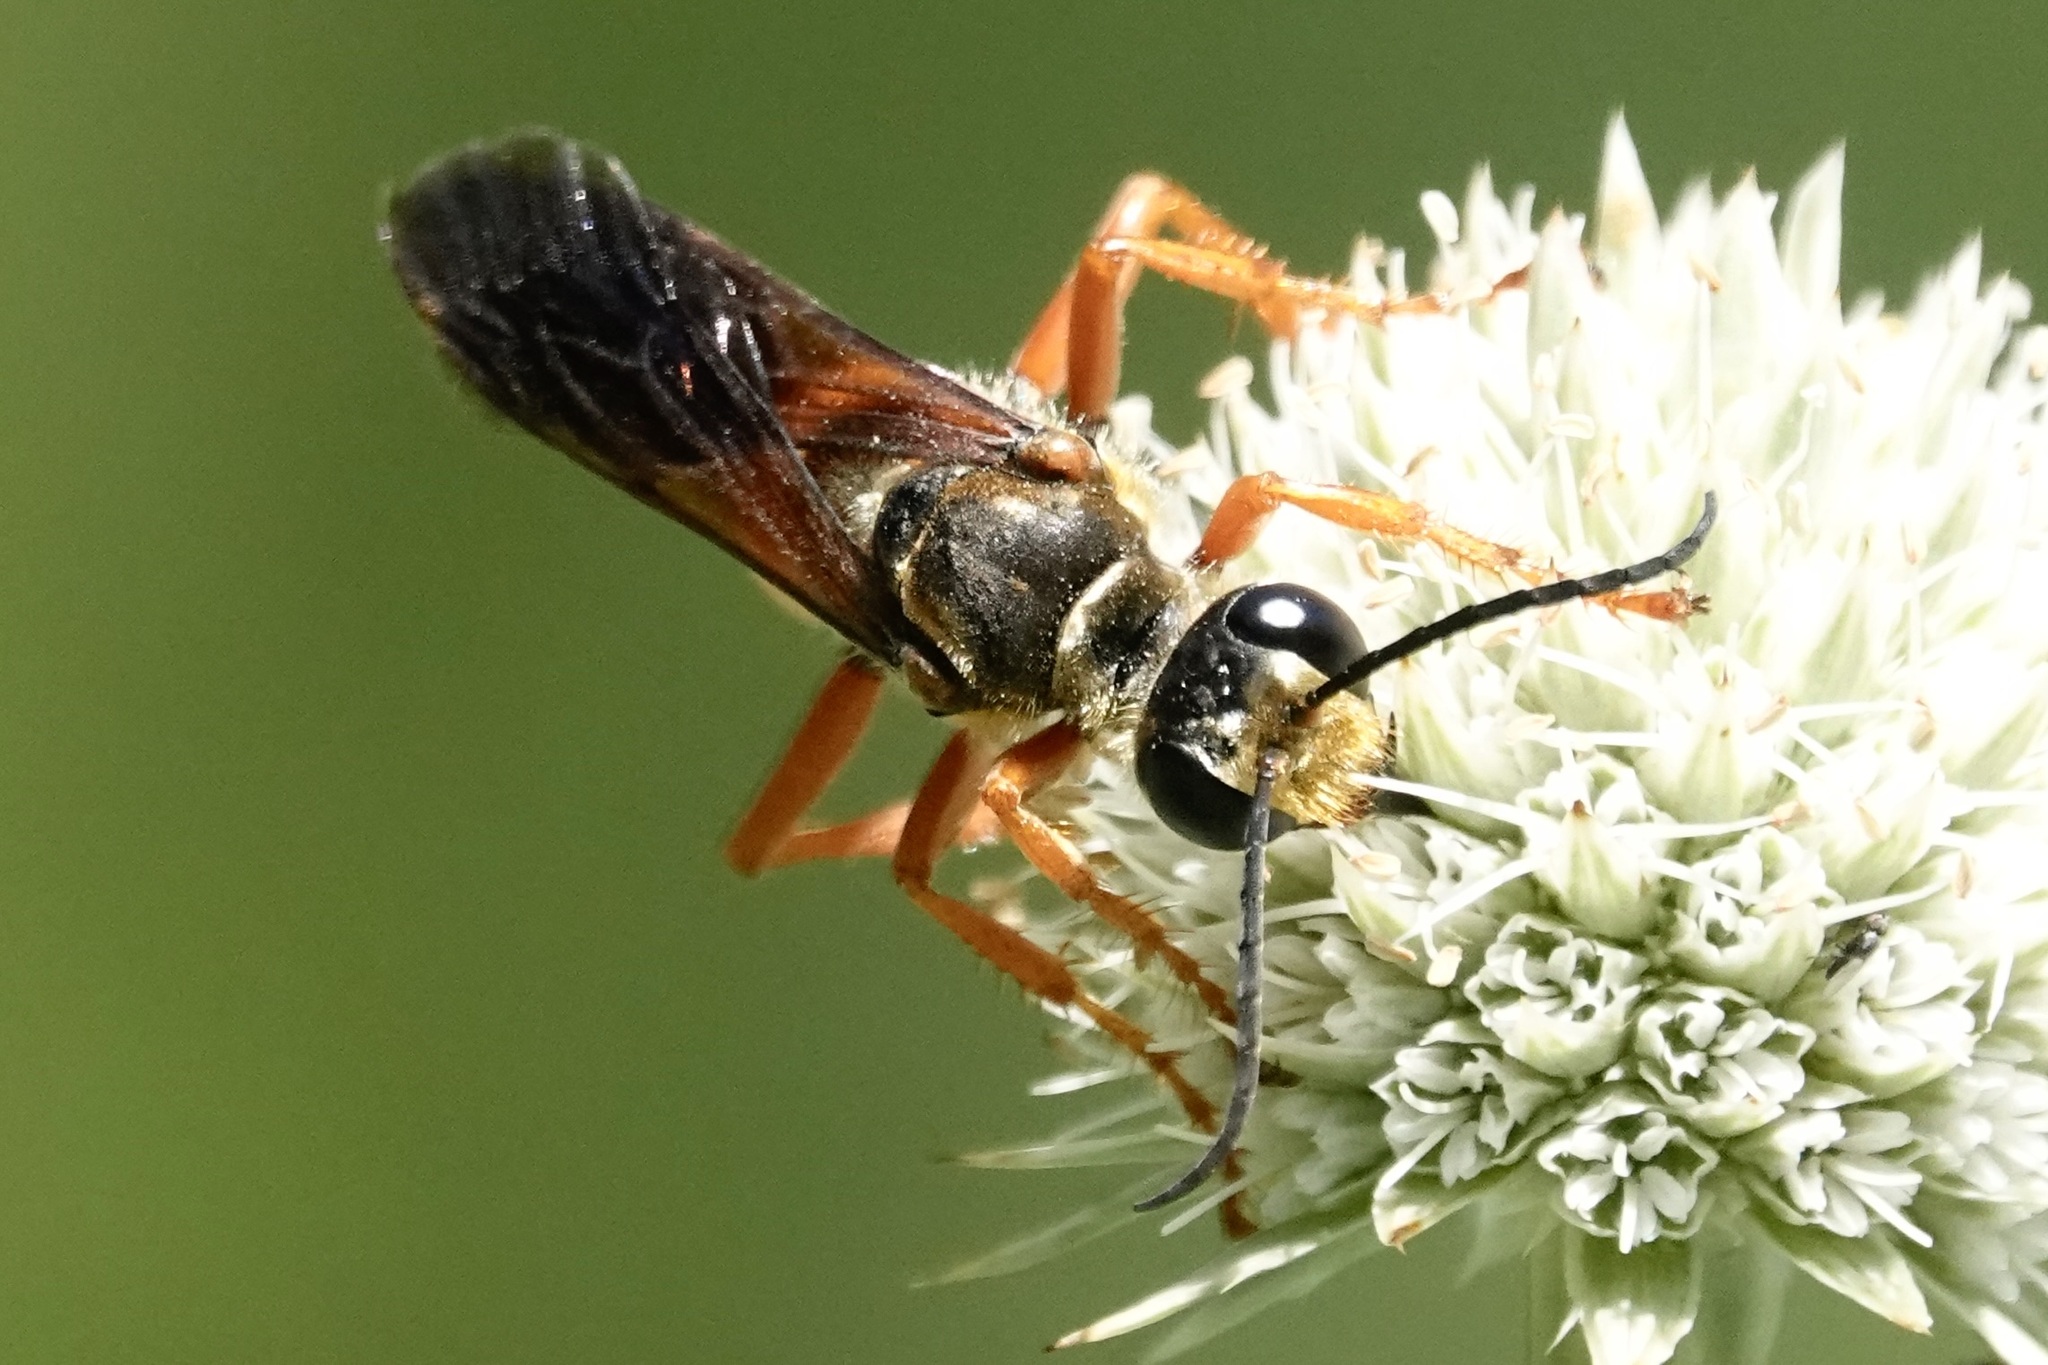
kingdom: Animalia
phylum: Arthropoda
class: Insecta
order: Hymenoptera
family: Sphecidae
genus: Sphex
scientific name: Sphex ichneumoneus
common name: Great golden digger wasp
